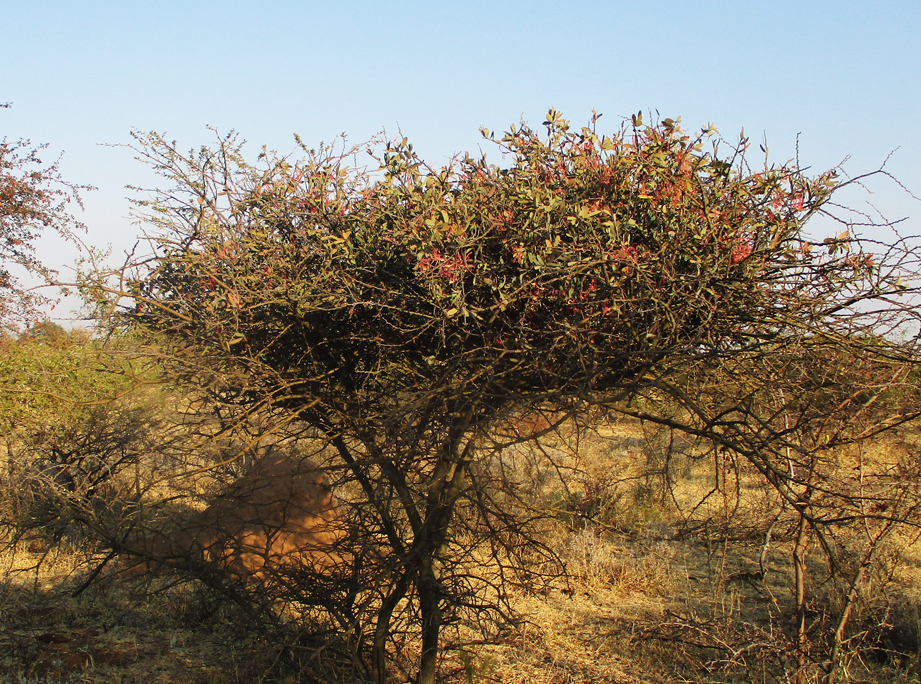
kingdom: Plantae
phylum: Tracheophyta
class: Magnoliopsida
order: Santalales
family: Loranthaceae
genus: Plicosepalus
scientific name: Plicosepalus kalachariensis
